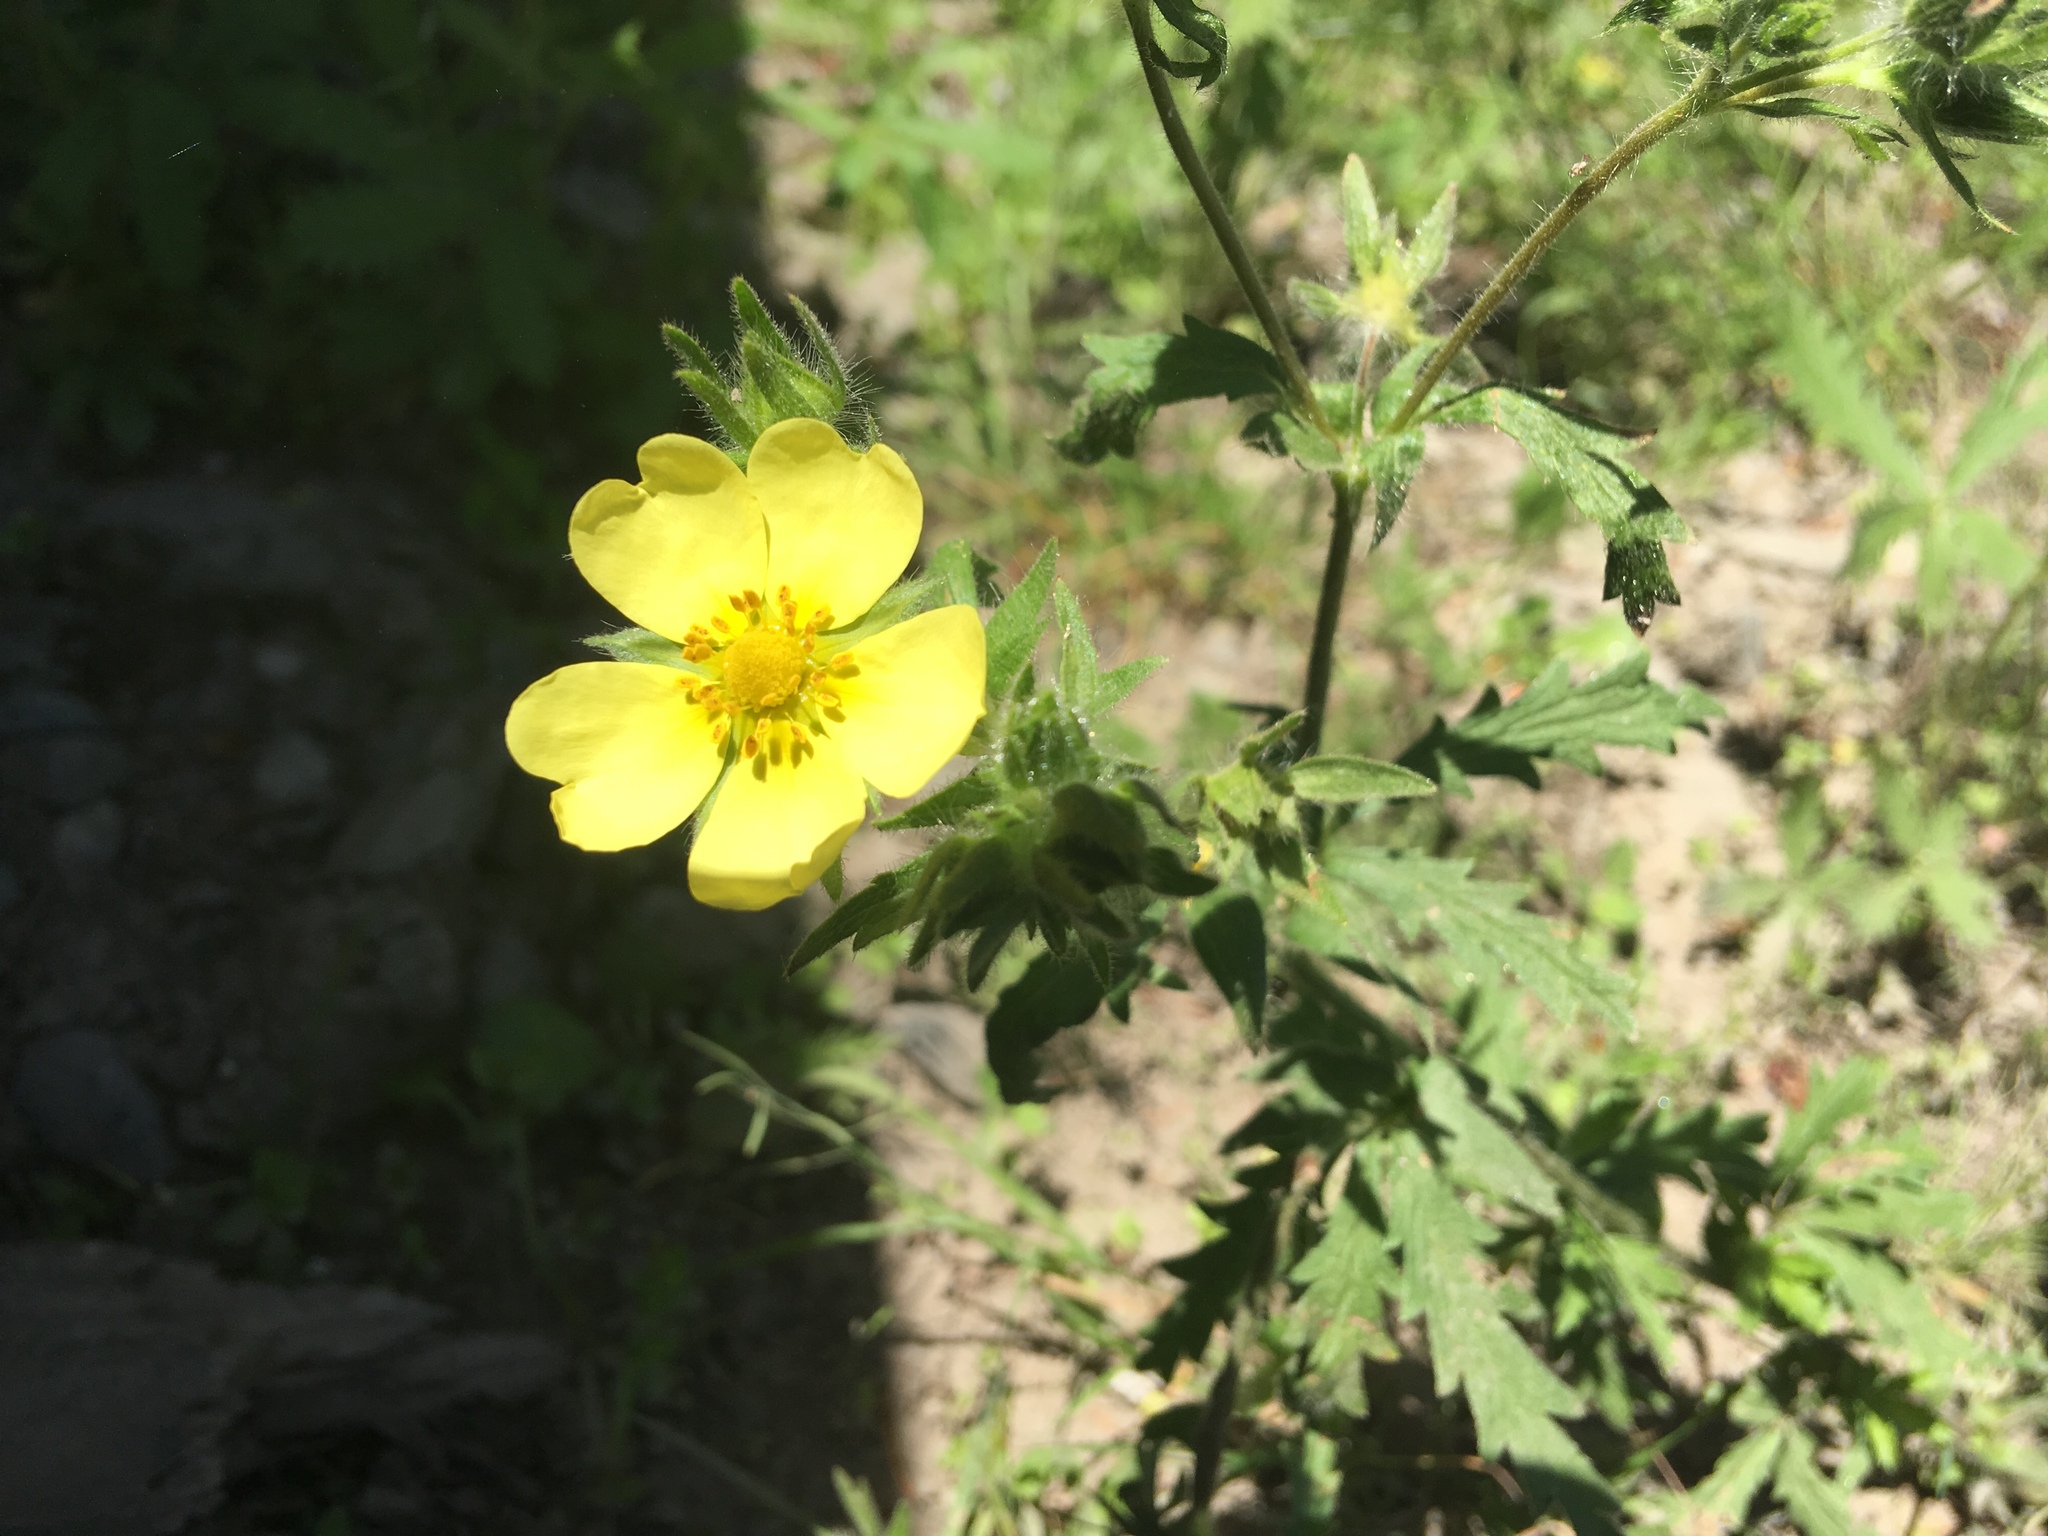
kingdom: Plantae
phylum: Tracheophyta
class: Magnoliopsida
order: Rosales
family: Rosaceae
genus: Potentilla
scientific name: Potentilla recta
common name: Sulphur cinquefoil
